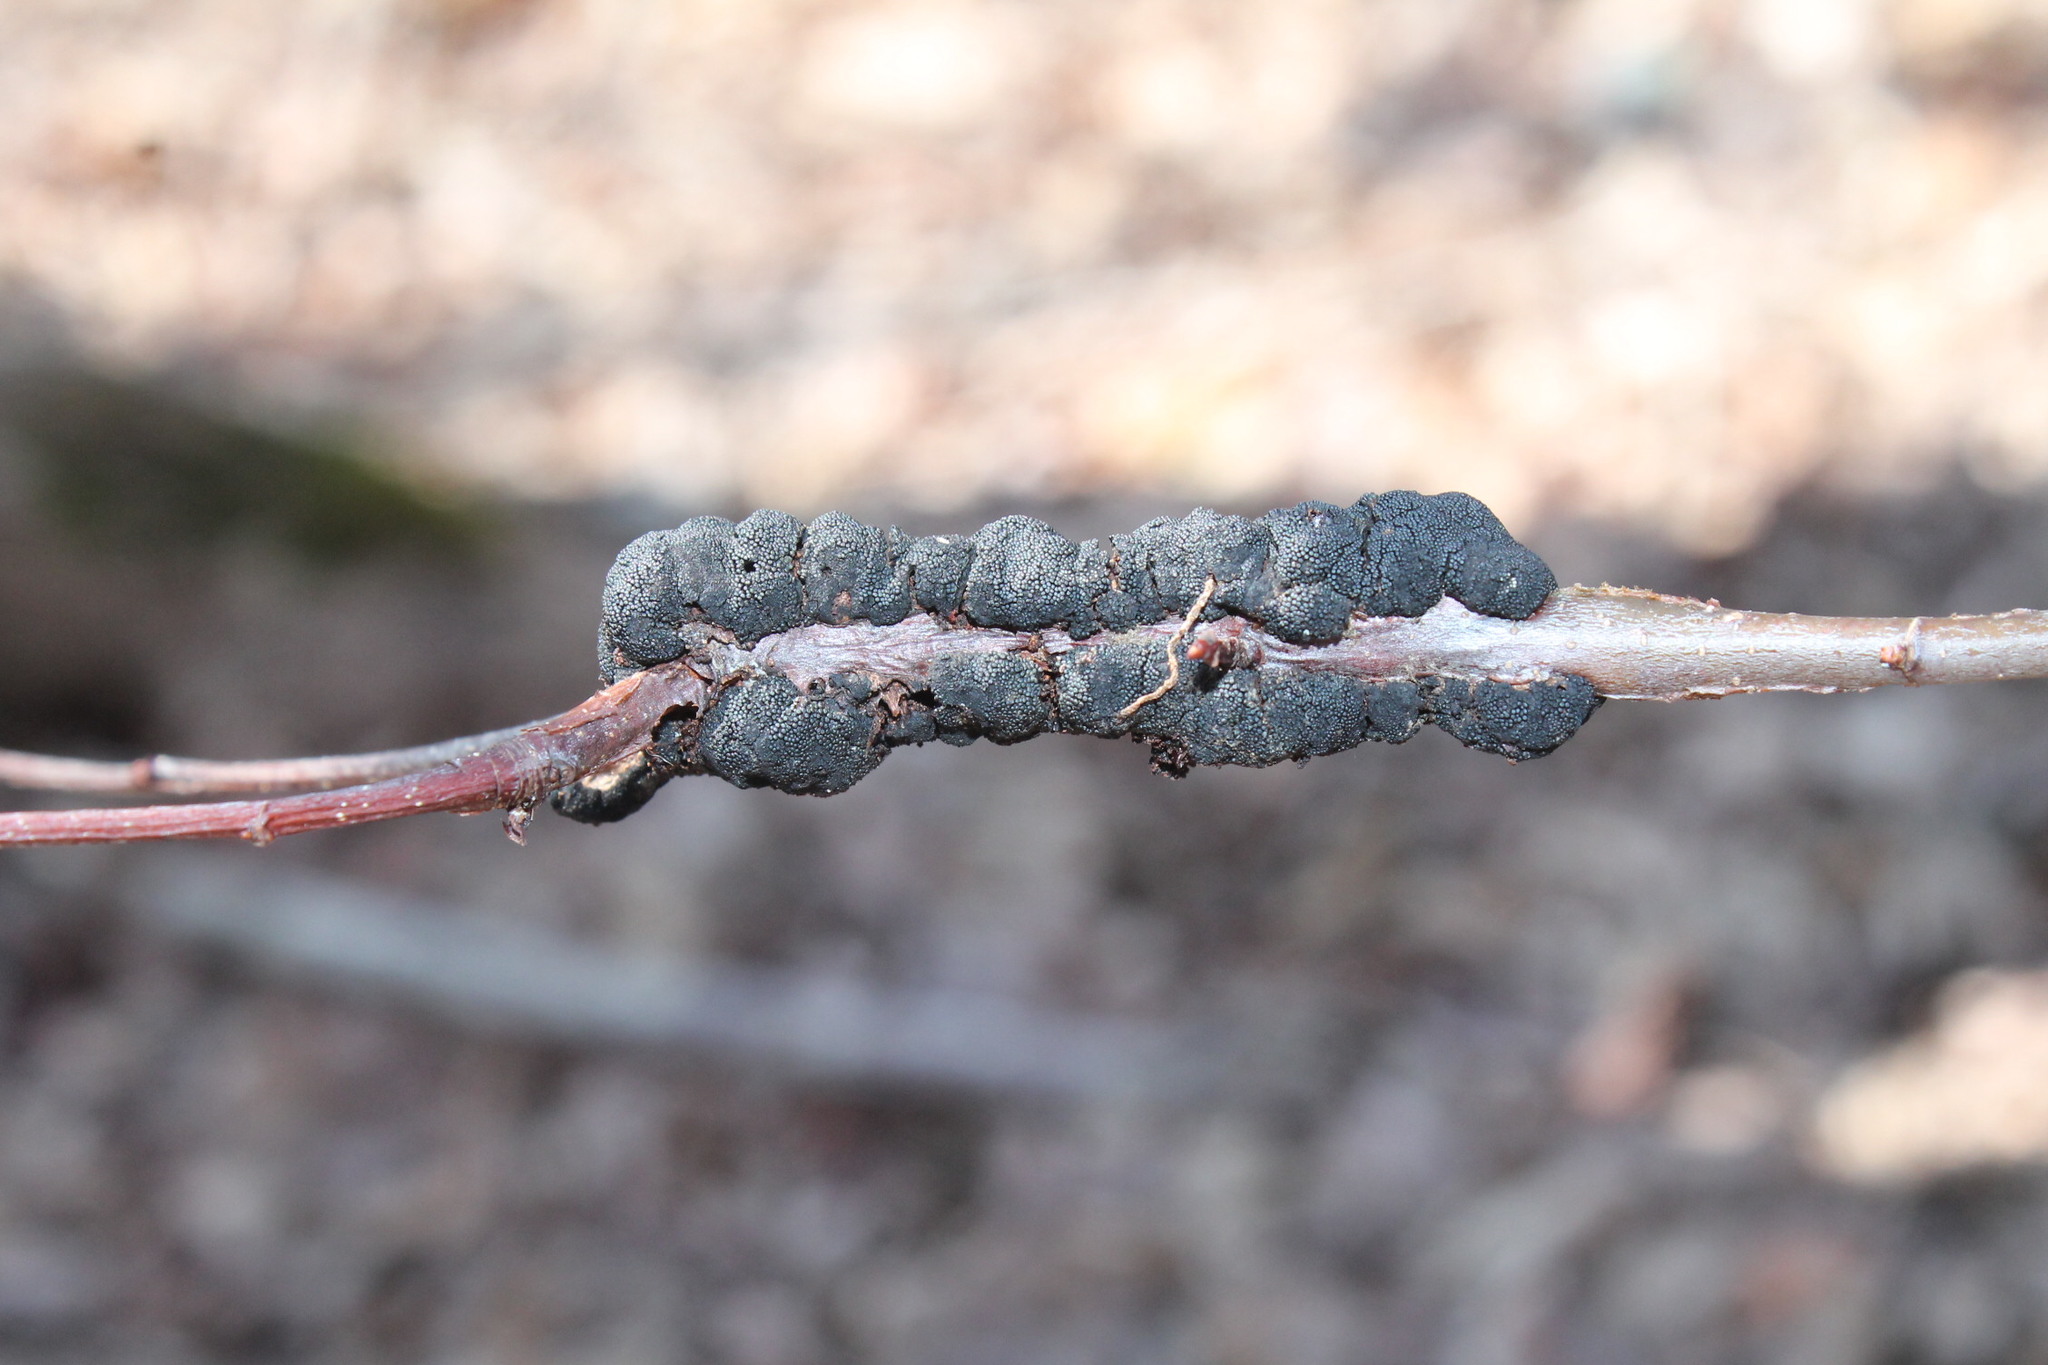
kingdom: Fungi
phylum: Ascomycota
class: Dothideomycetes
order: Venturiales
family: Venturiaceae
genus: Apiosporina
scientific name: Apiosporina morbosa
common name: Black knot
